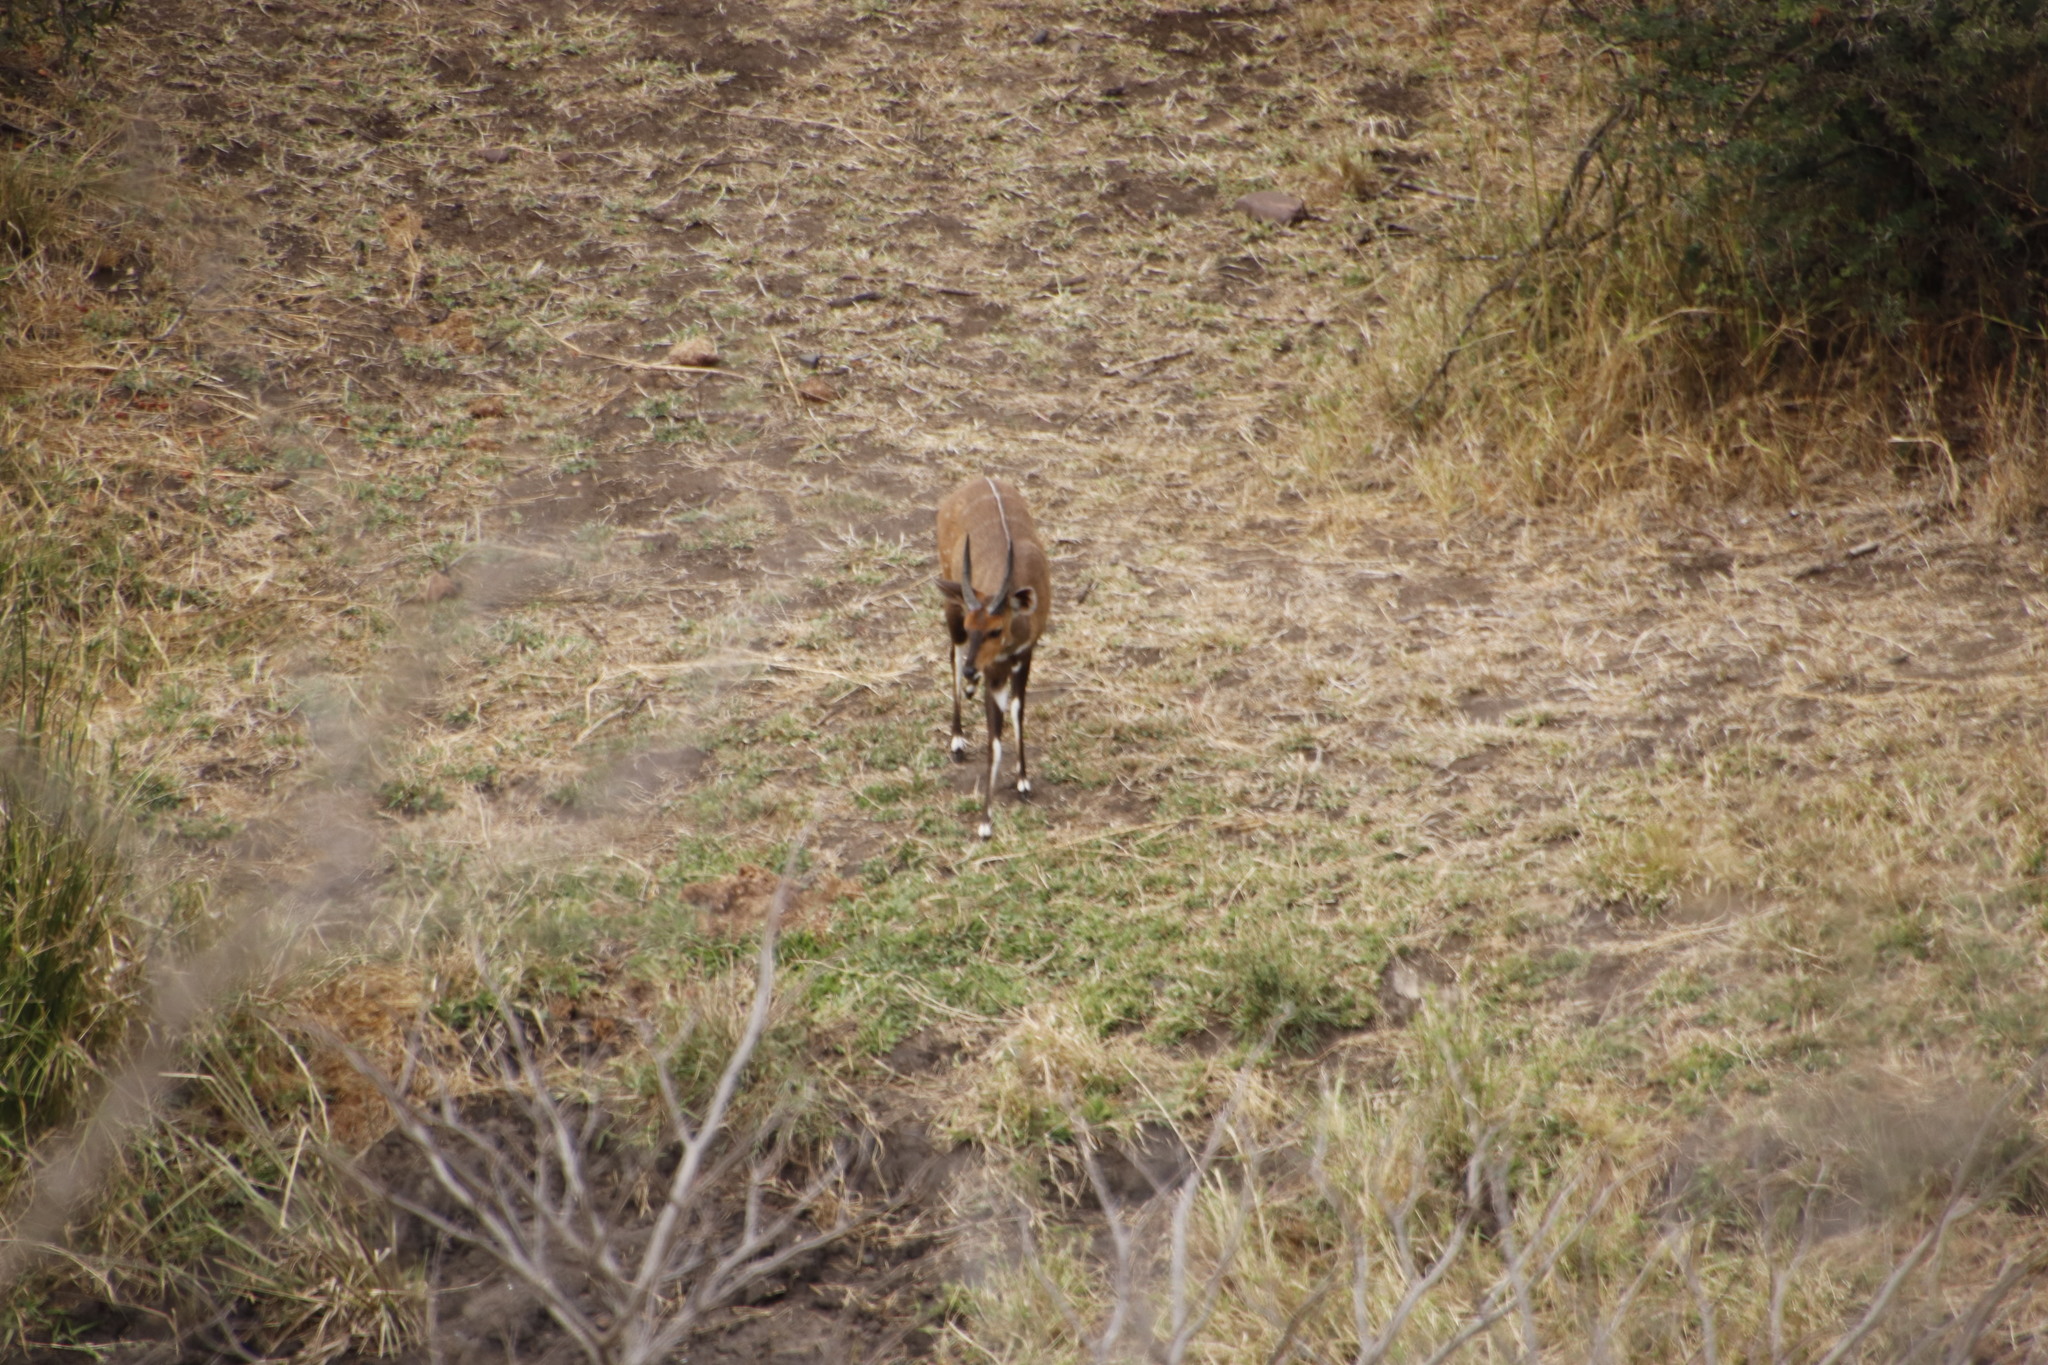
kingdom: Animalia
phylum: Chordata
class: Mammalia
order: Artiodactyla
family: Bovidae
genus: Tragelaphus
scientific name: Tragelaphus scriptus
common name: Bushbuck
